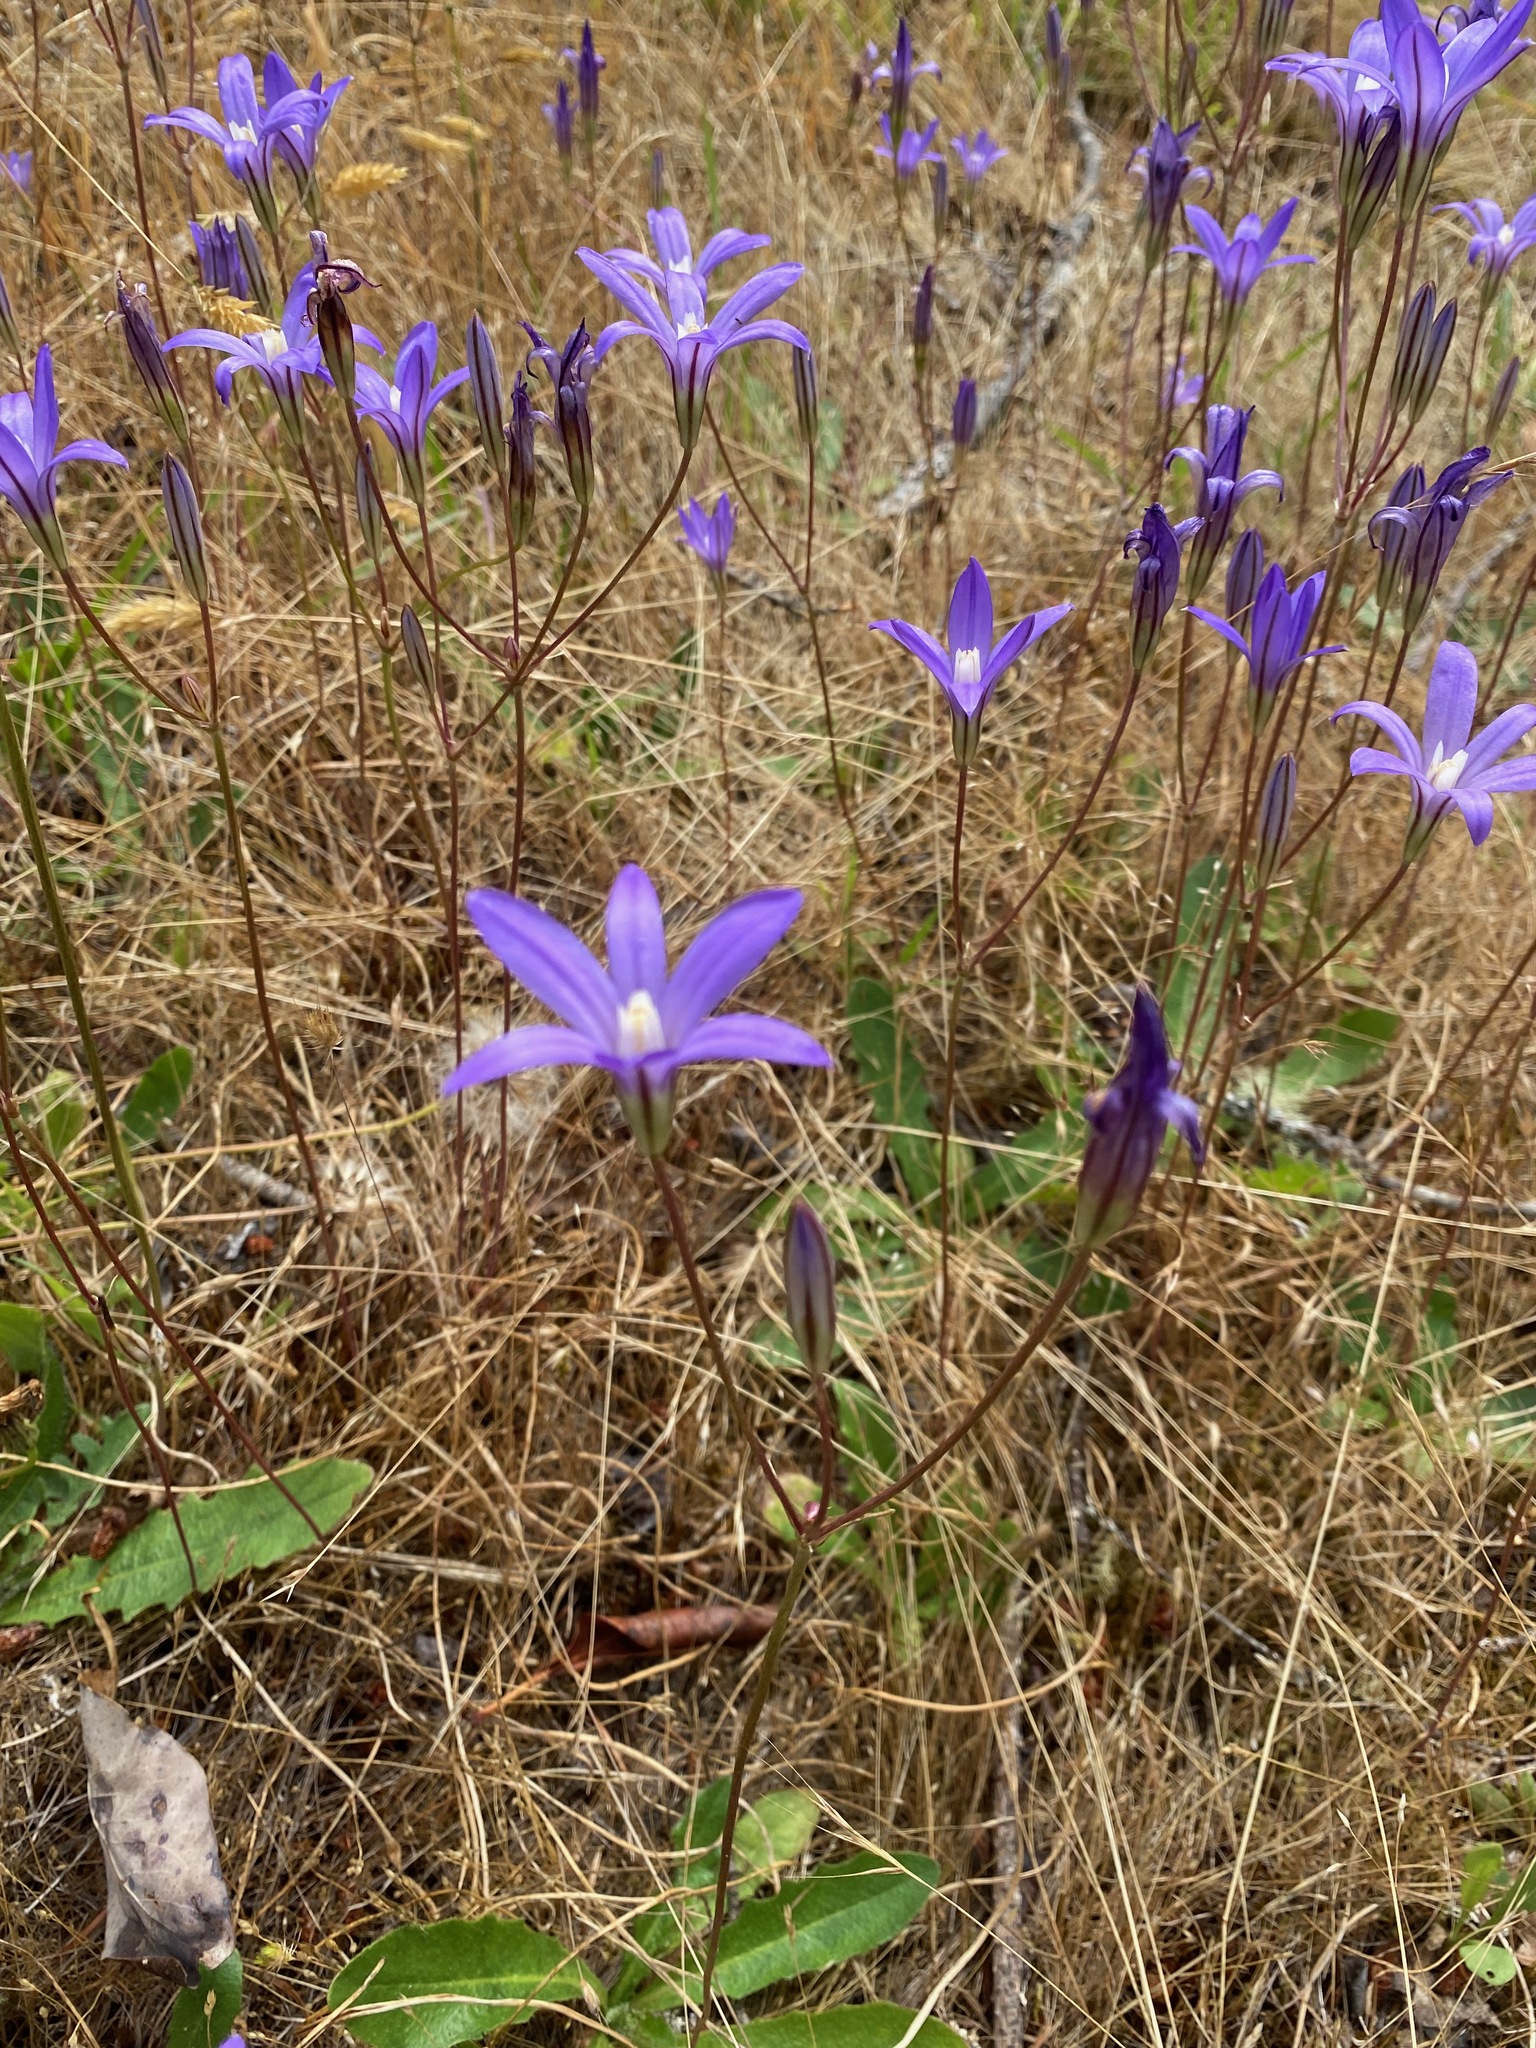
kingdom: Plantae
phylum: Tracheophyta
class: Liliopsida
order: Asparagales
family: Asparagaceae
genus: Brodiaea
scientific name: Brodiaea coronaria
